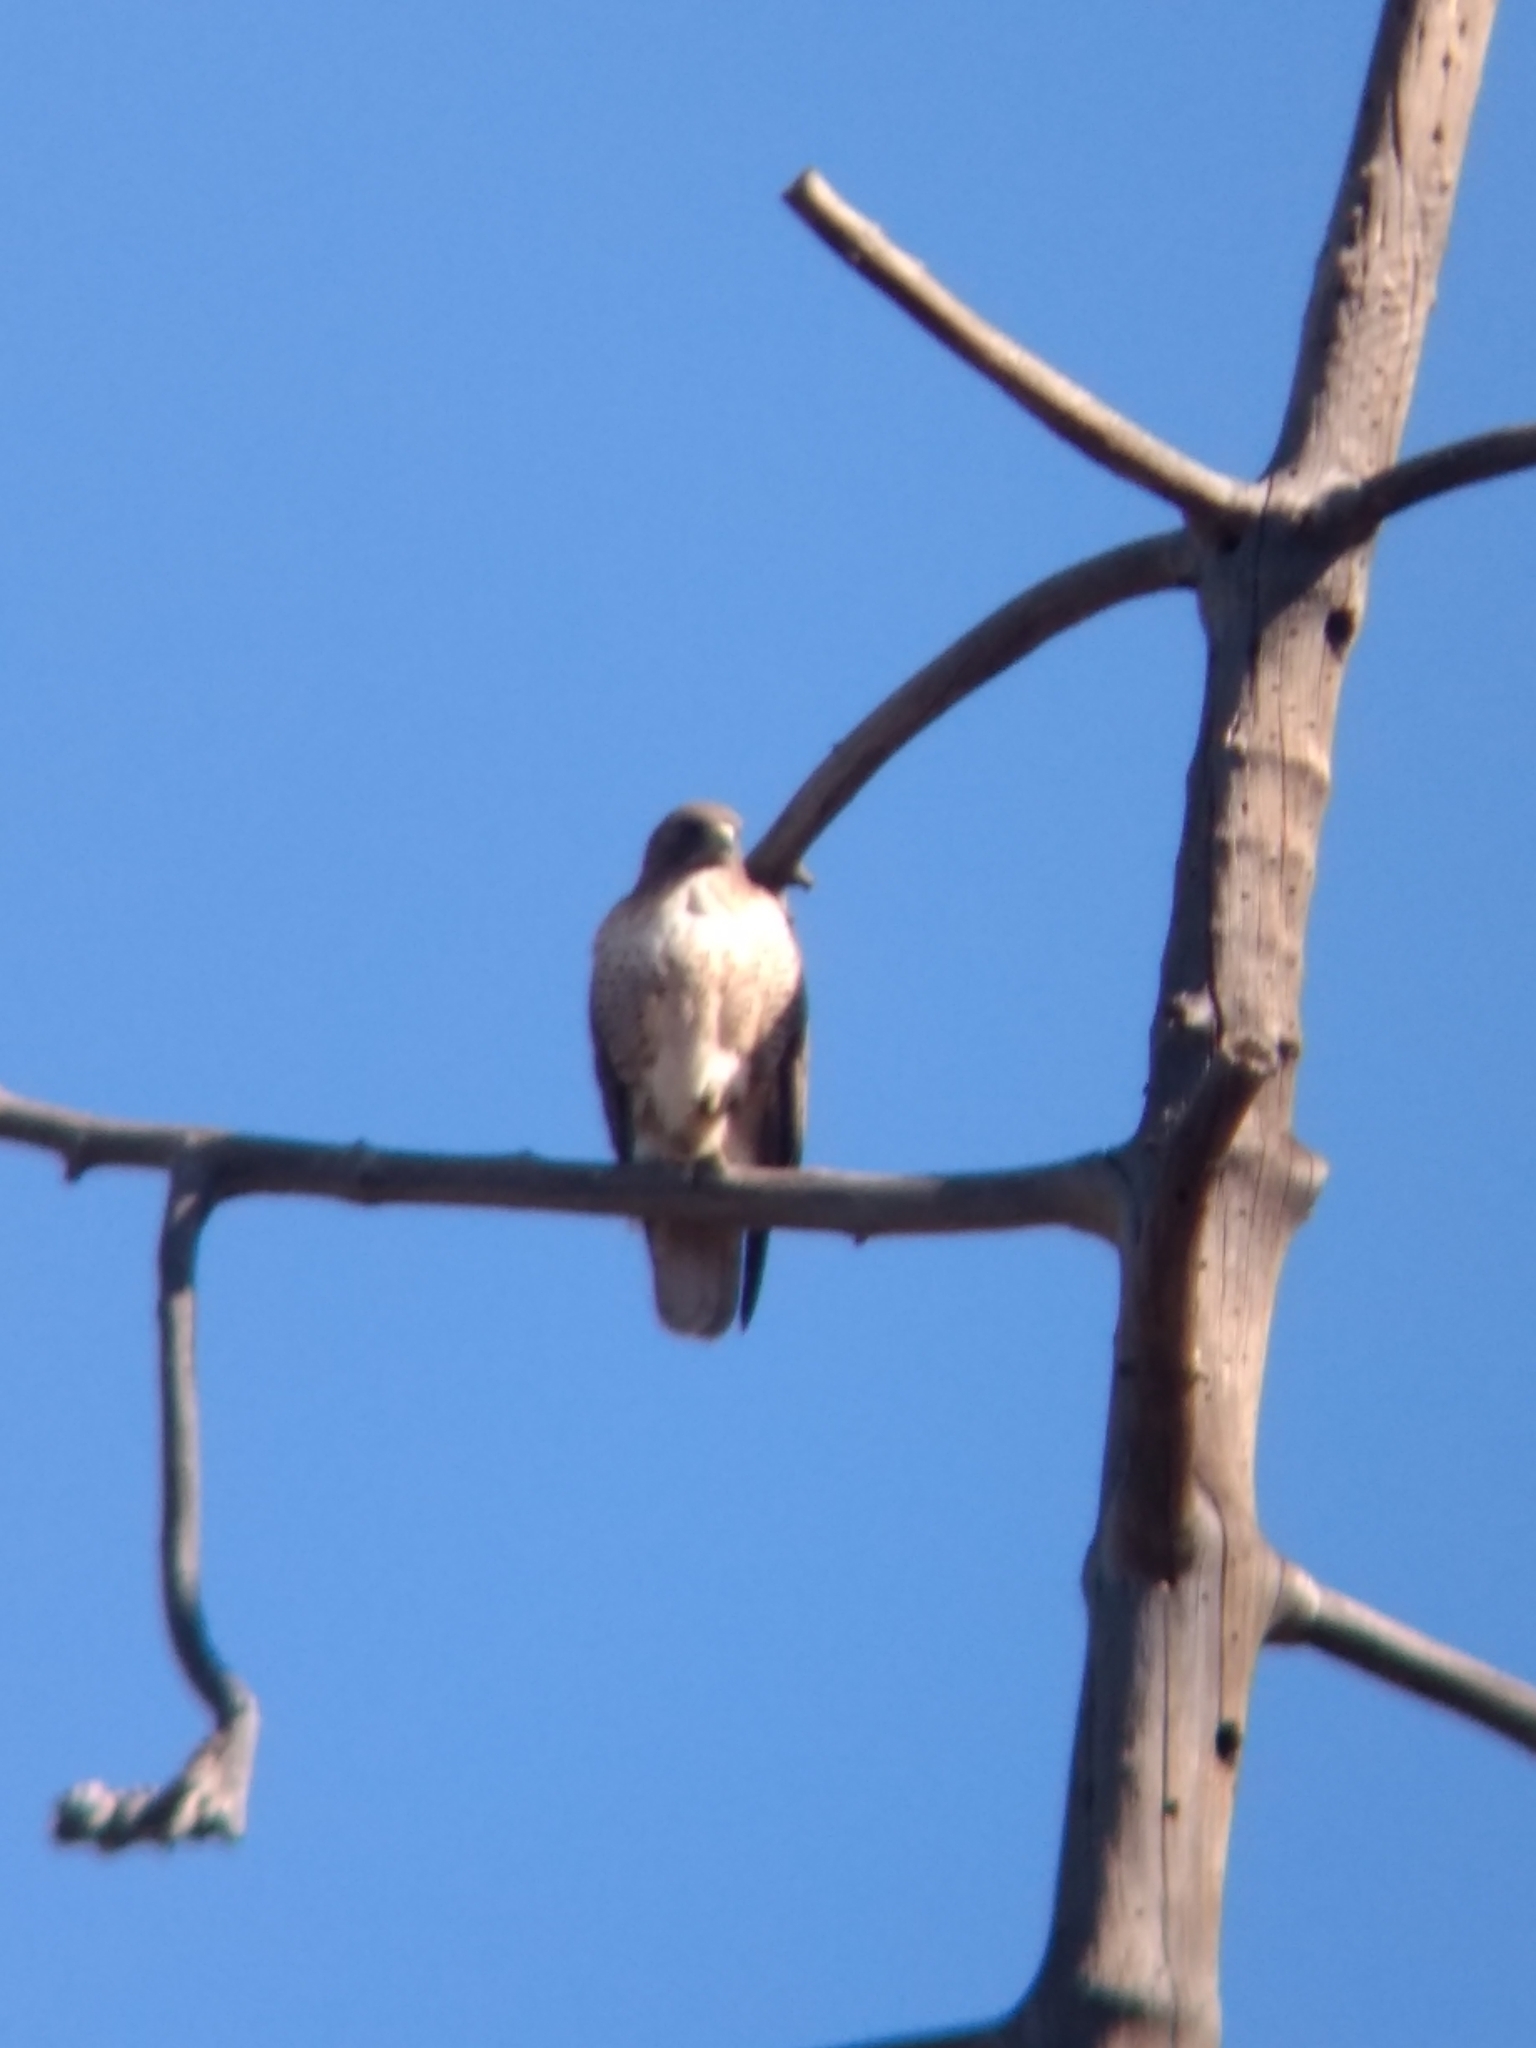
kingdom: Animalia
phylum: Chordata
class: Aves
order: Accipitriformes
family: Accipitridae
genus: Buteo
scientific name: Buteo jamaicensis
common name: Red-tailed hawk
